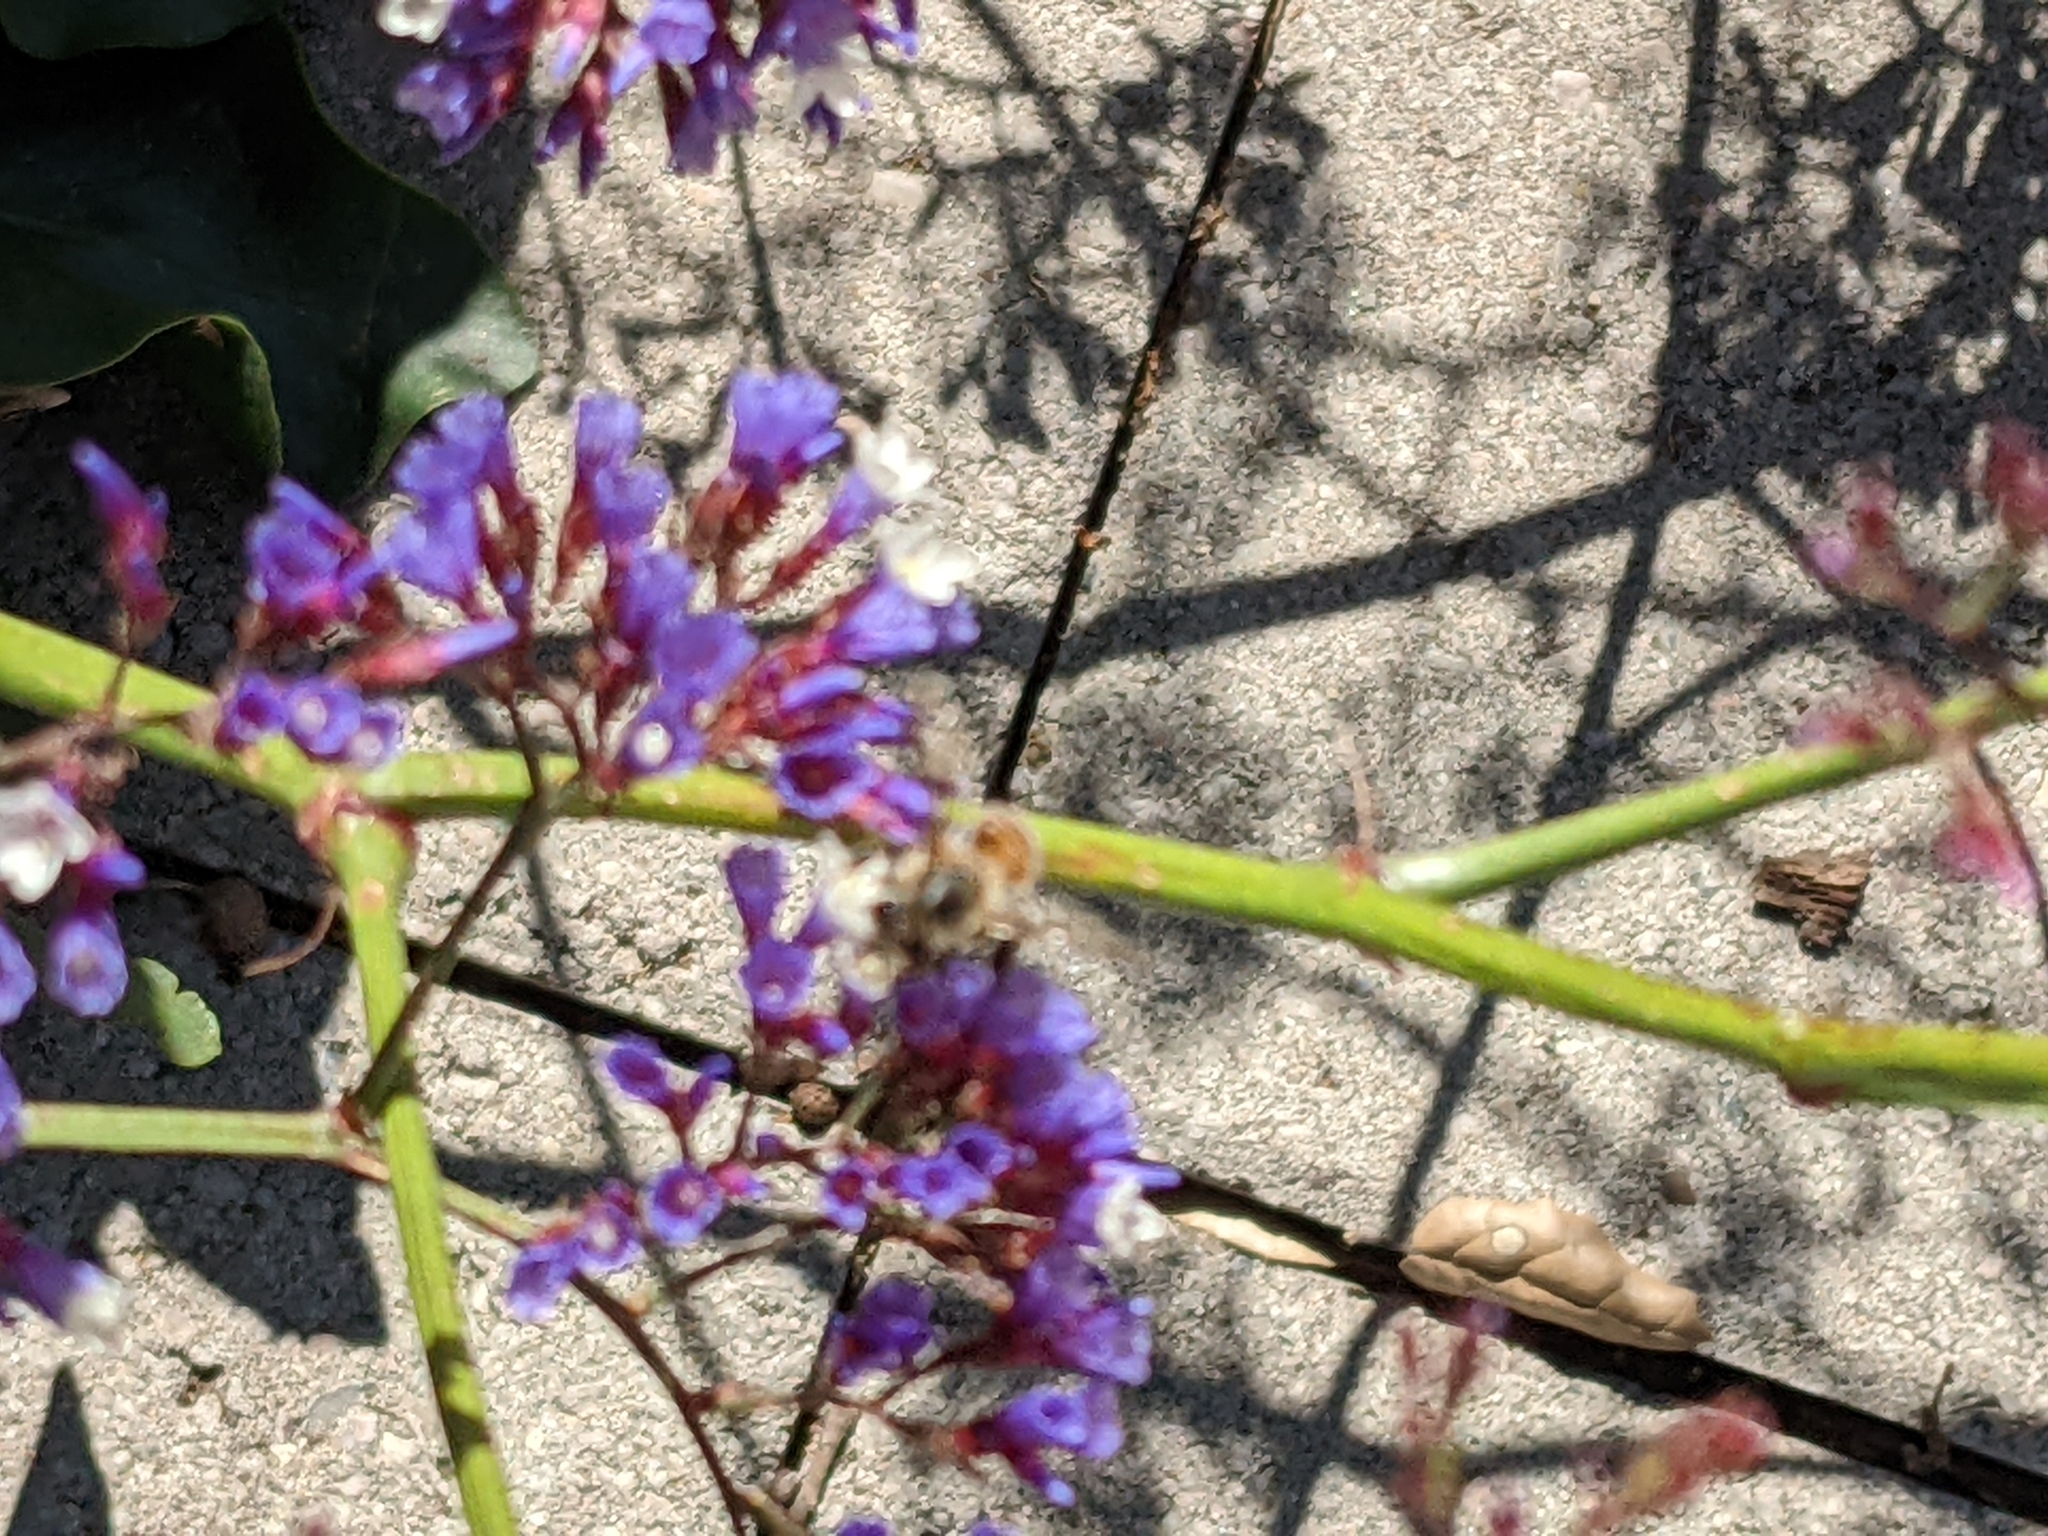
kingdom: Animalia
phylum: Arthropoda
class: Insecta
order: Hymenoptera
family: Apidae
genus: Apis
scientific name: Apis mellifera
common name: Honey bee
